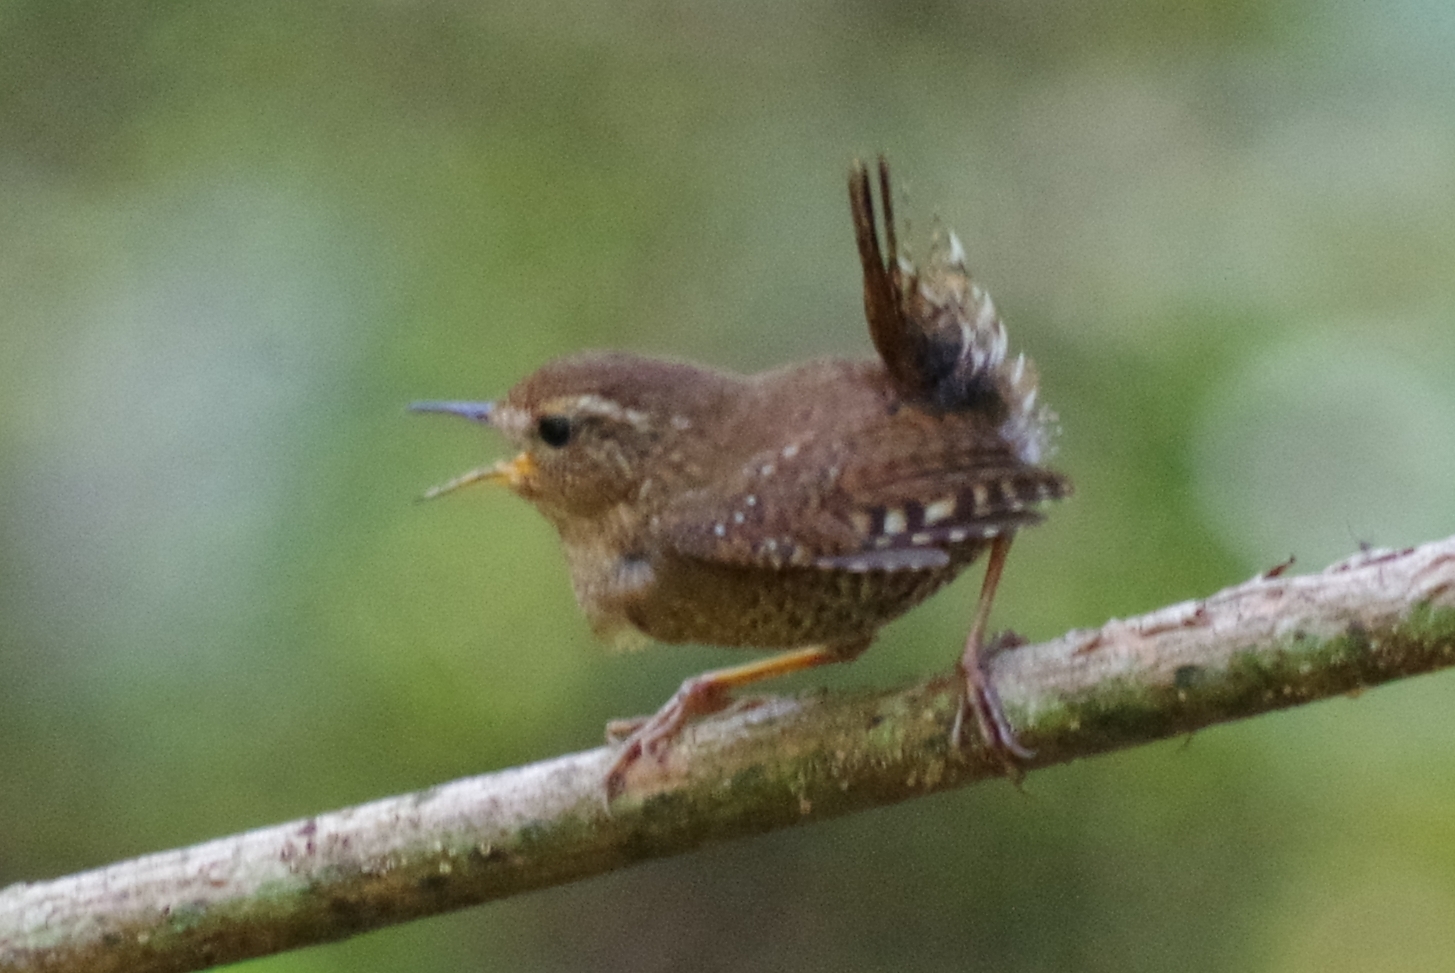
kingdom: Animalia
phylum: Chordata
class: Aves
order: Passeriformes
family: Troglodytidae
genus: Troglodytes
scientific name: Troglodytes pacificus
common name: Pacific wren
